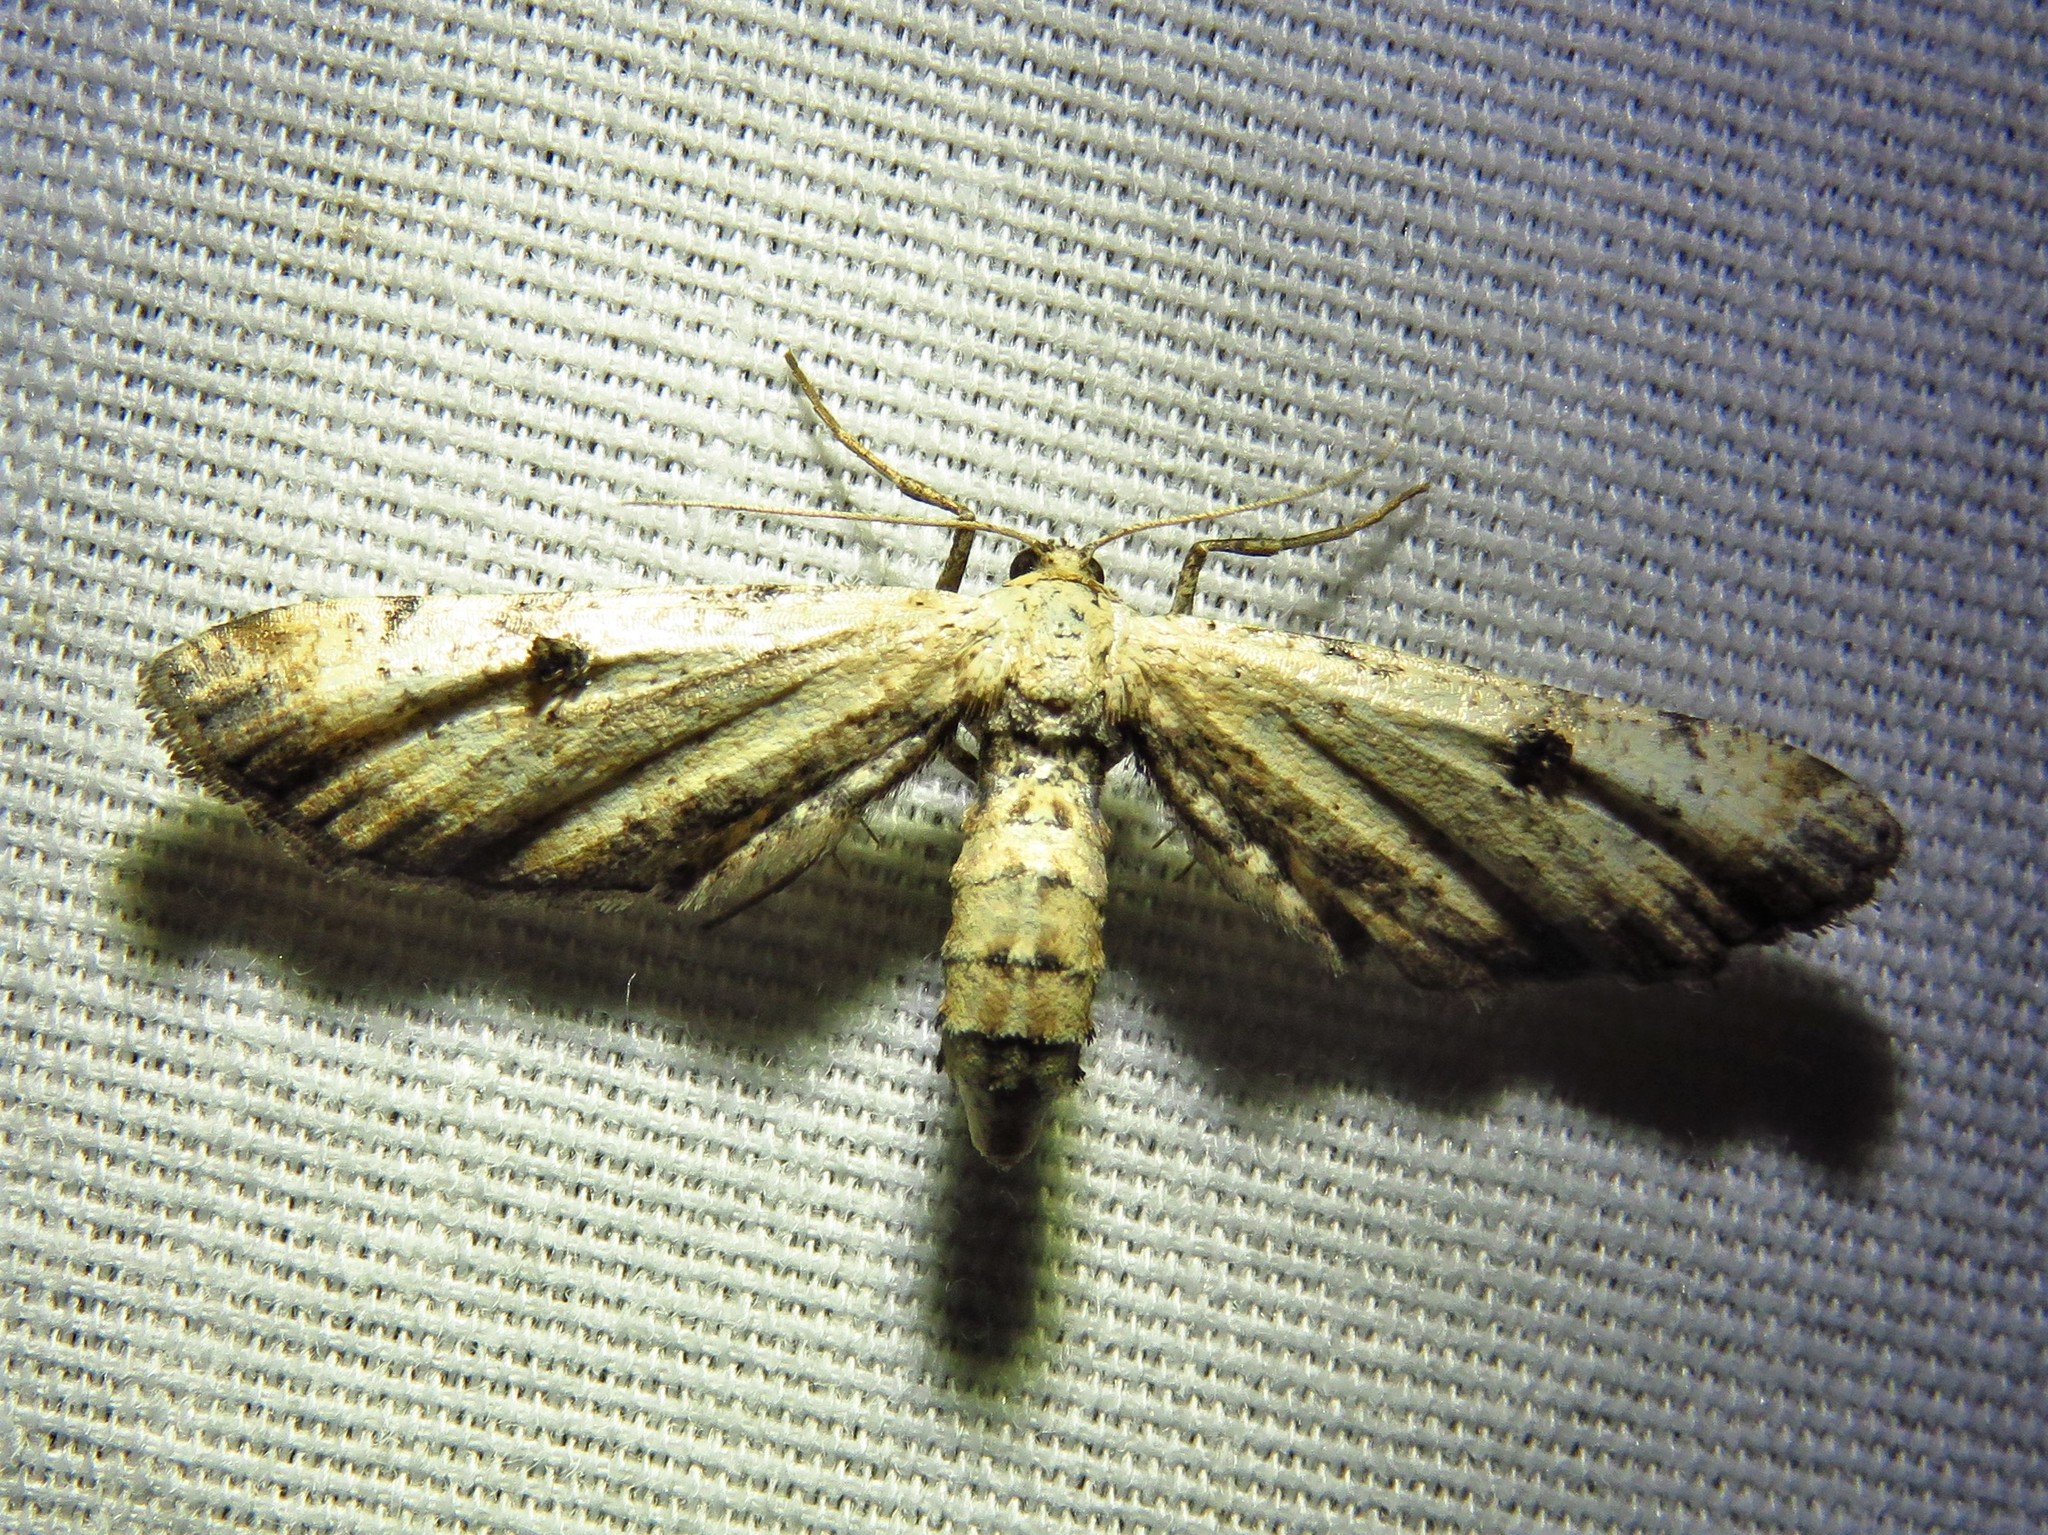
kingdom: Animalia
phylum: Arthropoda
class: Insecta
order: Lepidoptera
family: Geometridae
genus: Tornos
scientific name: Tornos scolopacinaria
